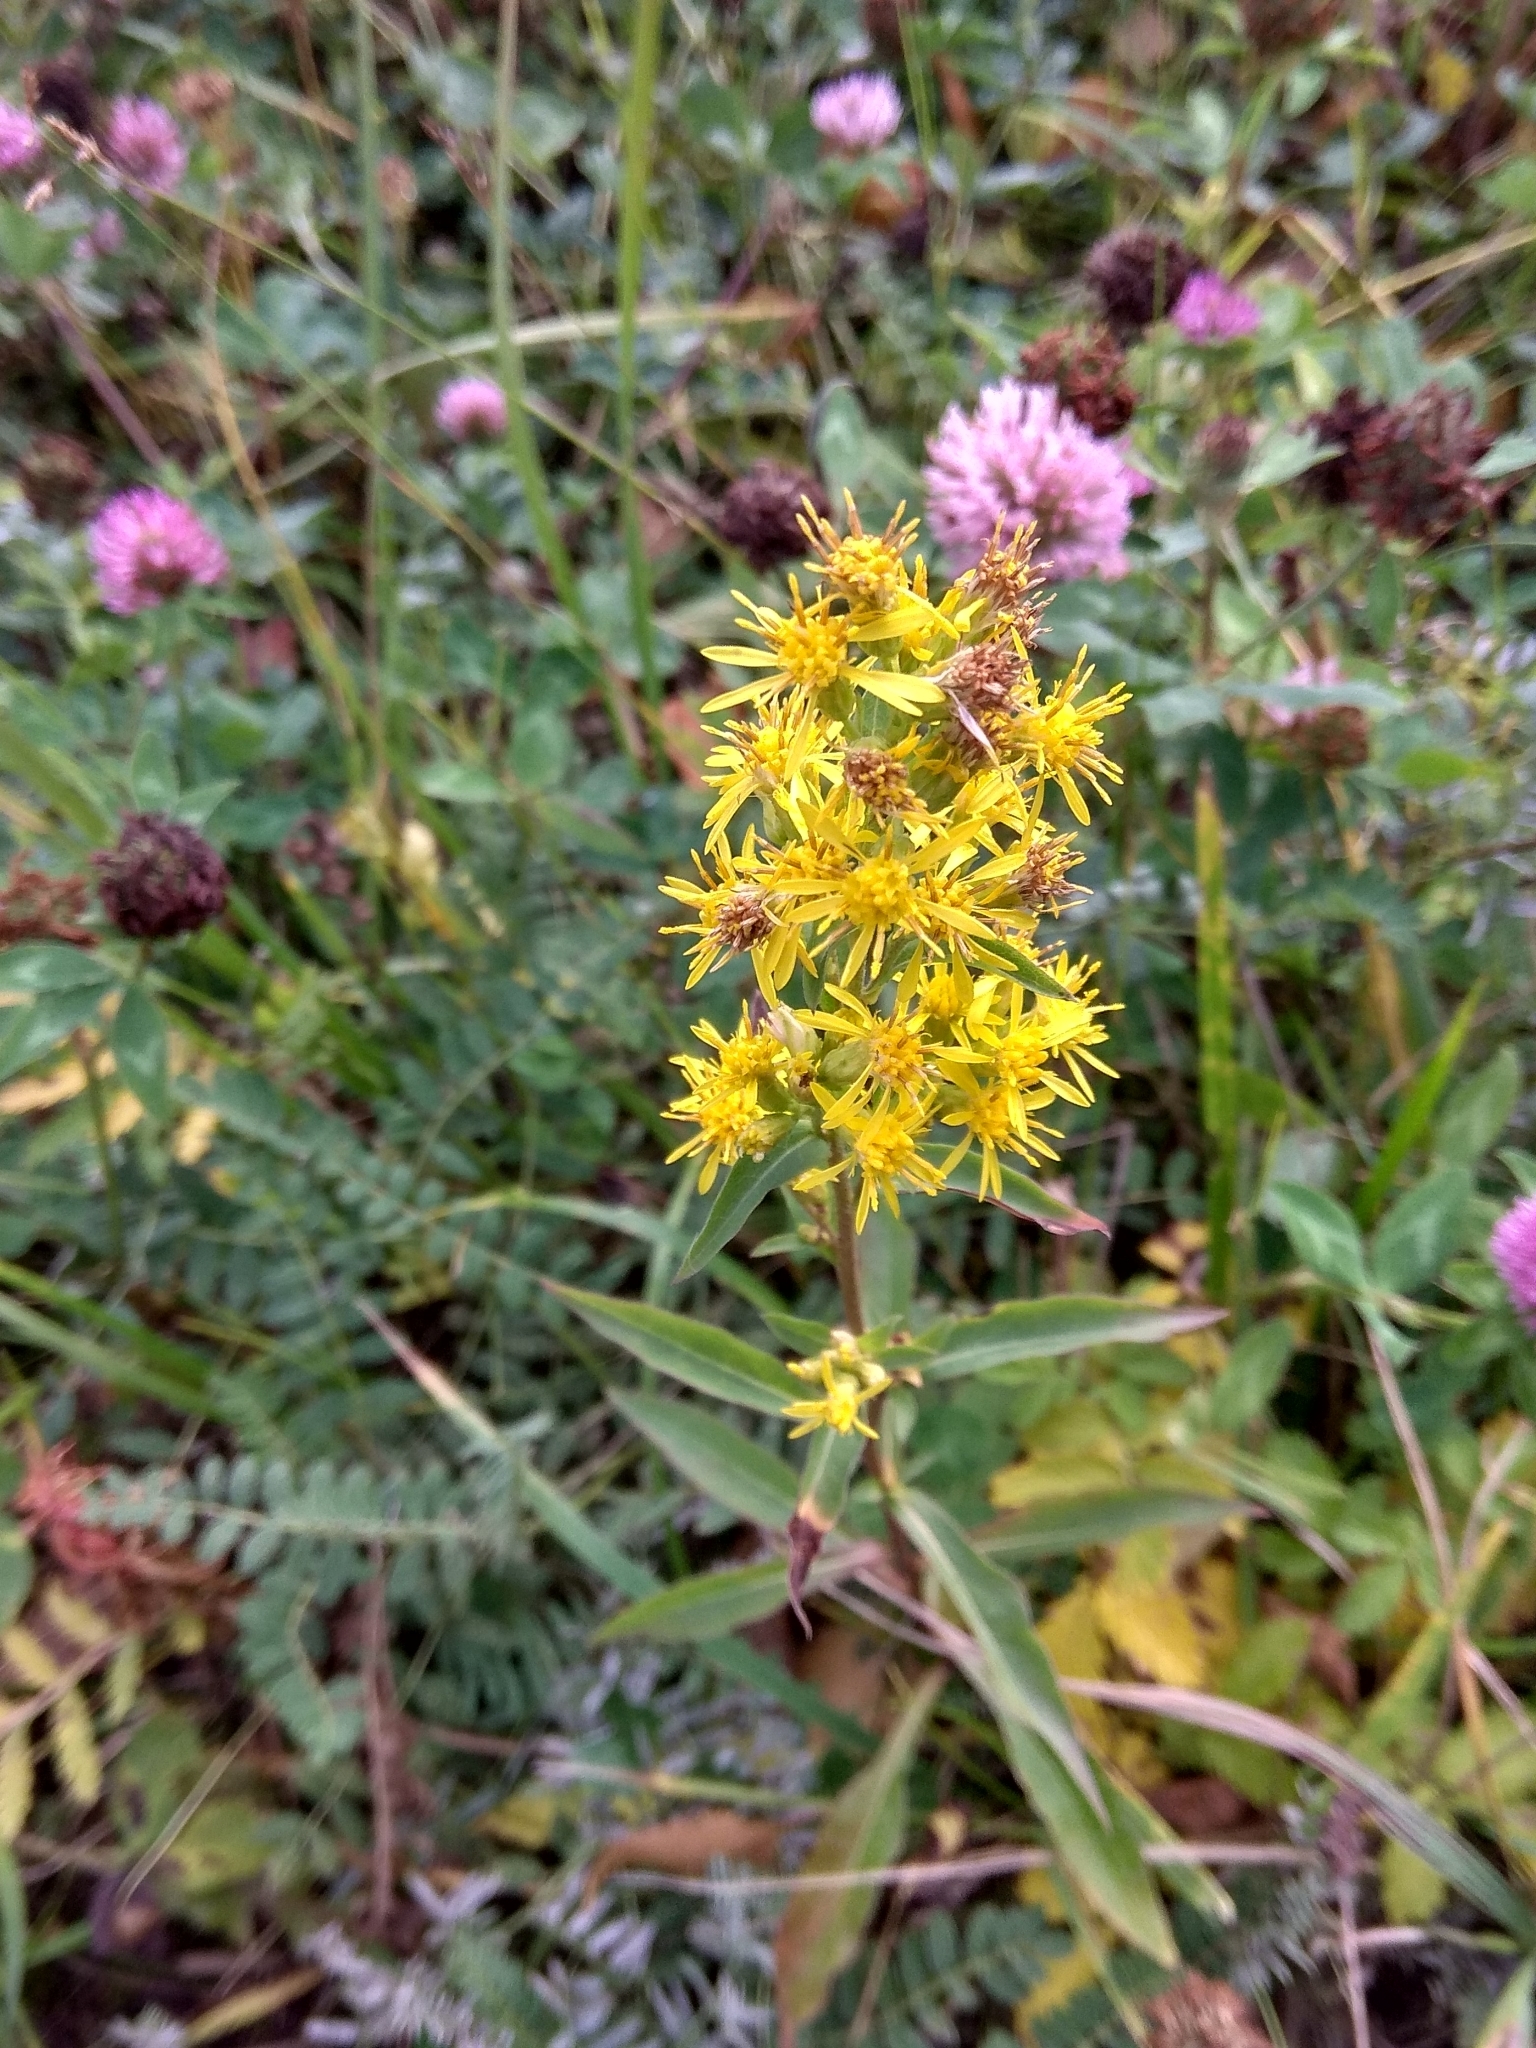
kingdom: Plantae
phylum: Tracheophyta
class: Magnoliopsida
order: Asterales
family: Asteraceae
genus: Solidago
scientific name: Solidago virgaurea
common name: Goldenrod
